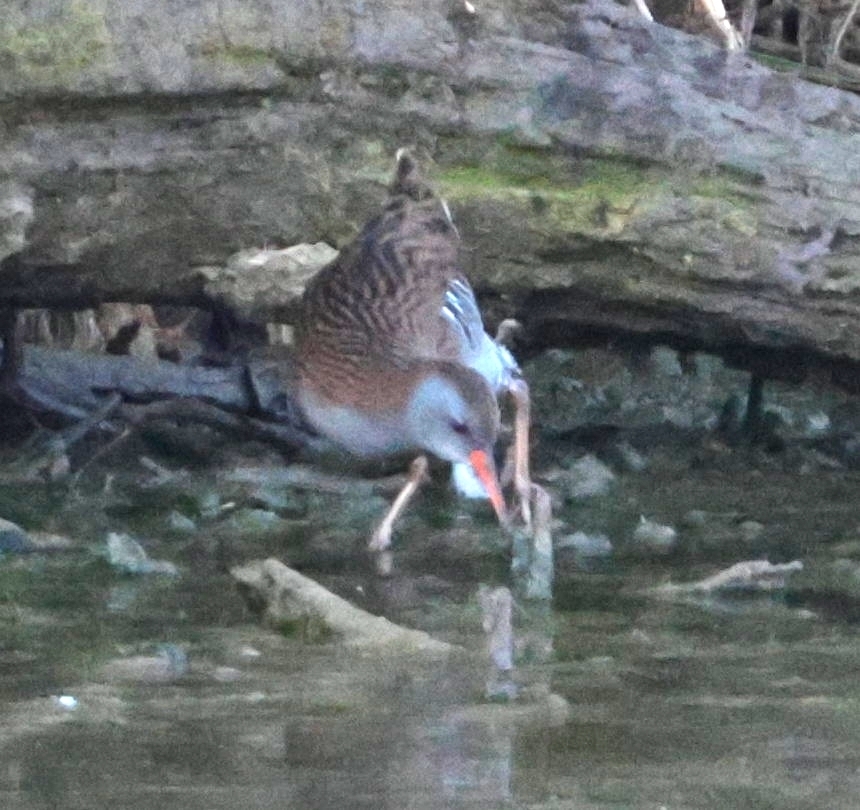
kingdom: Animalia
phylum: Chordata
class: Aves
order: Gruiformes
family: Rallidae
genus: Rallus
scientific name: Rallus aquaticus
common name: Water rail
